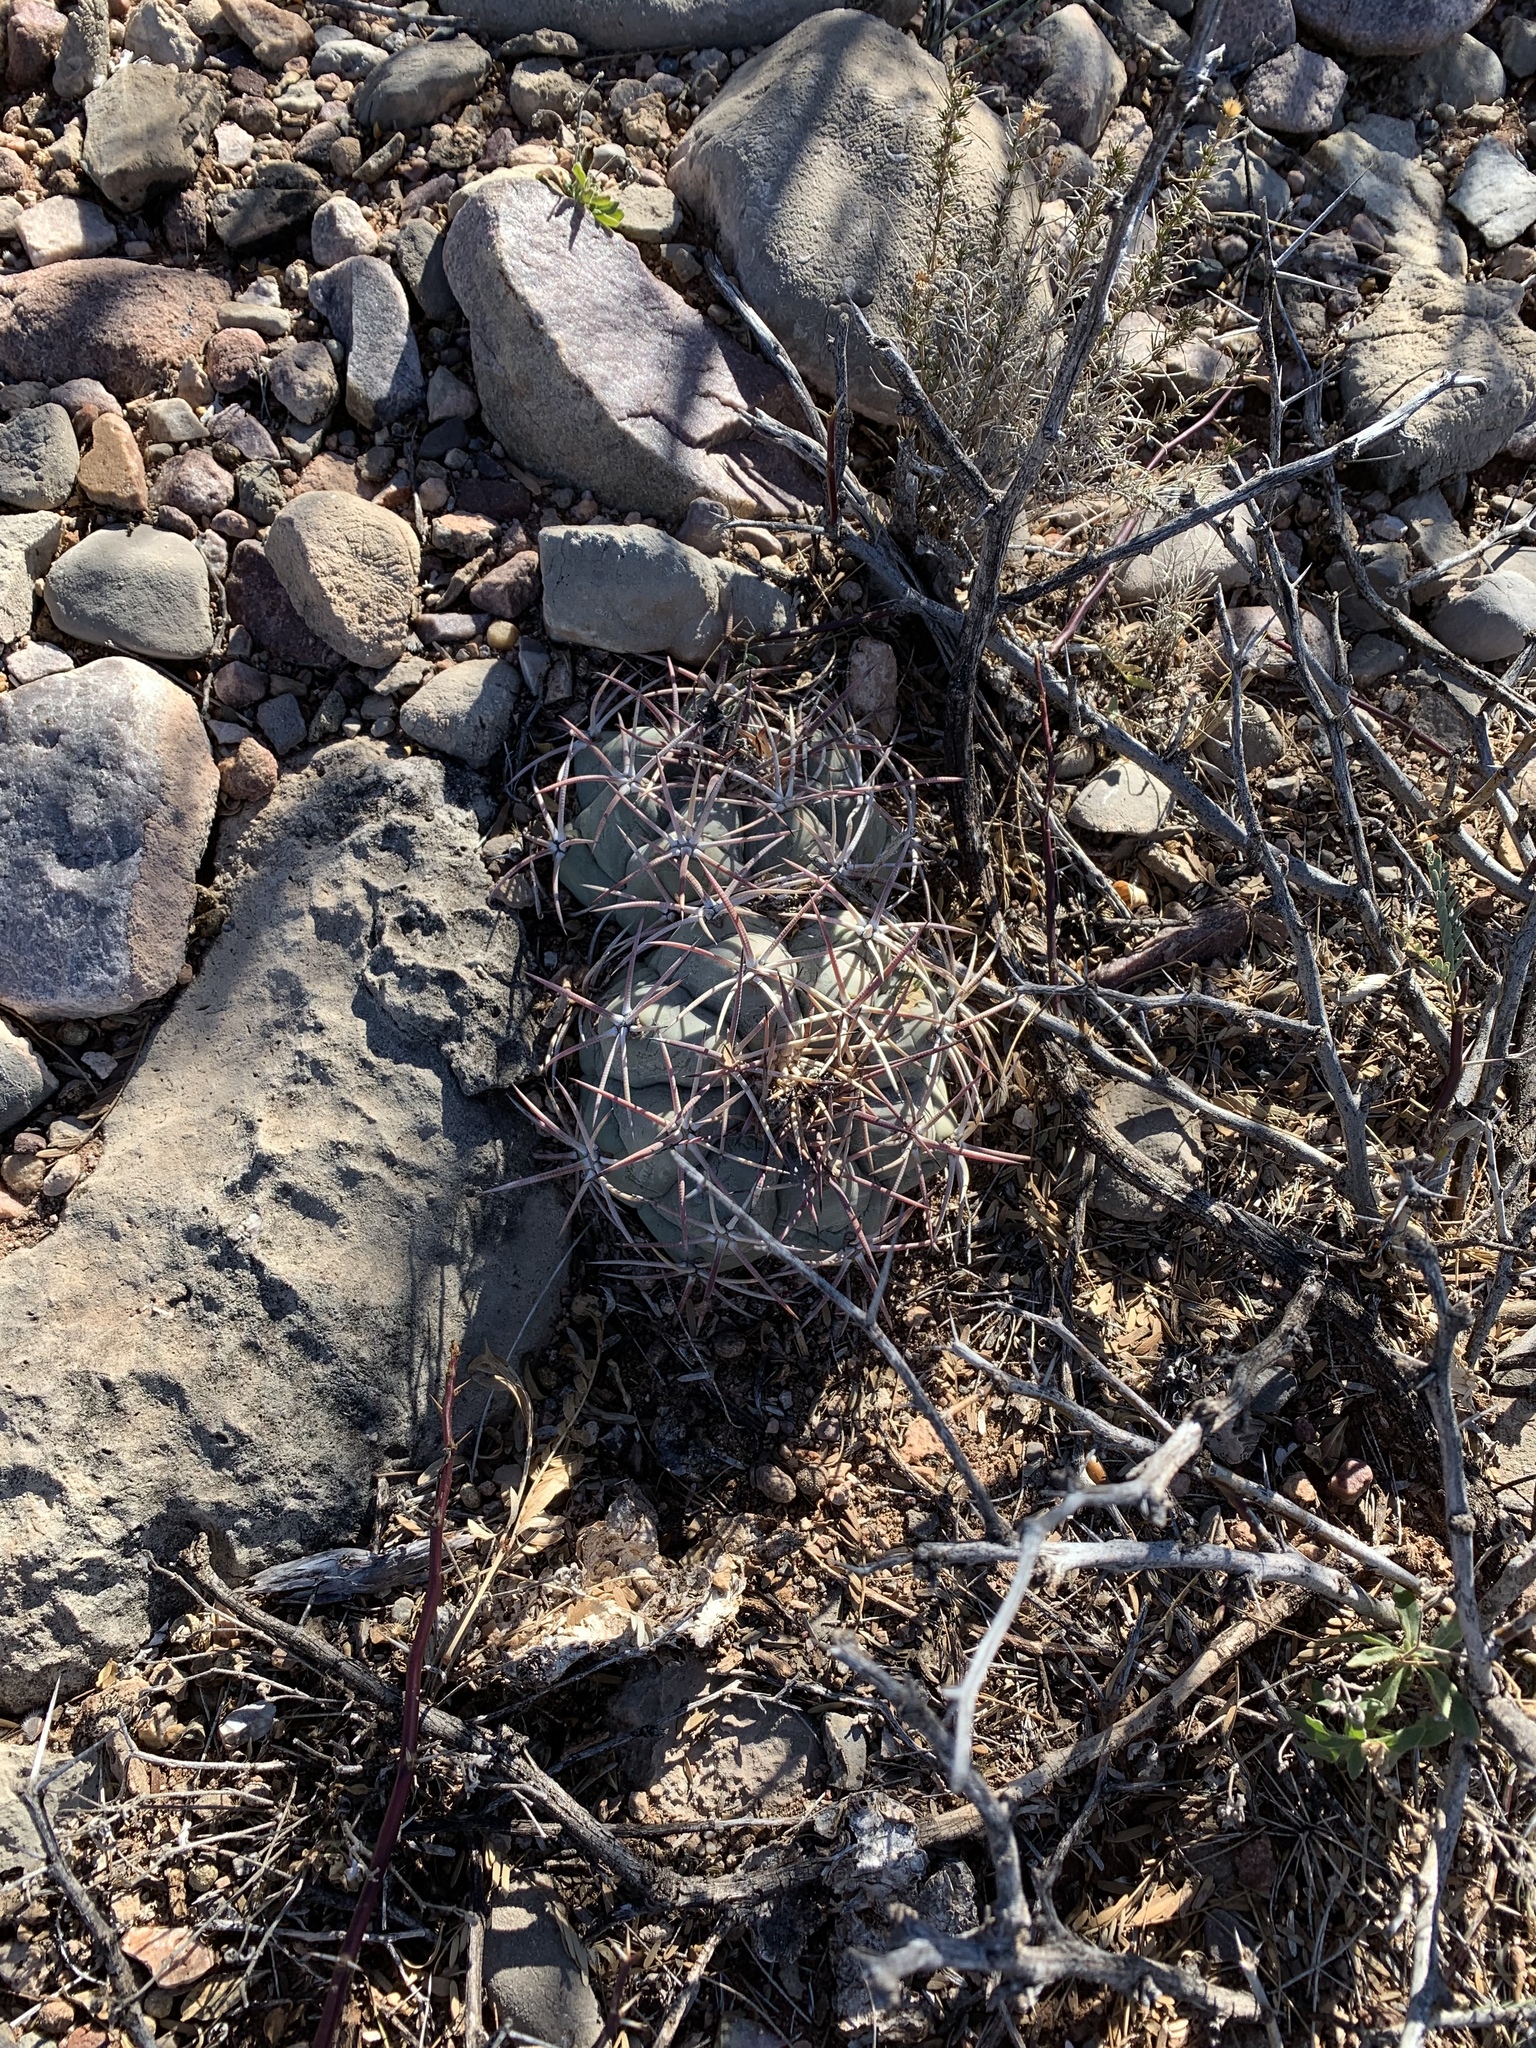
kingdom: Plantae
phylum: Tracheophyta
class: Magnoliopsida
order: Caryophyllales
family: Cactaceae
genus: Echinocactus
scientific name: Echinocactus horizonthalonius
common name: Devilshead
